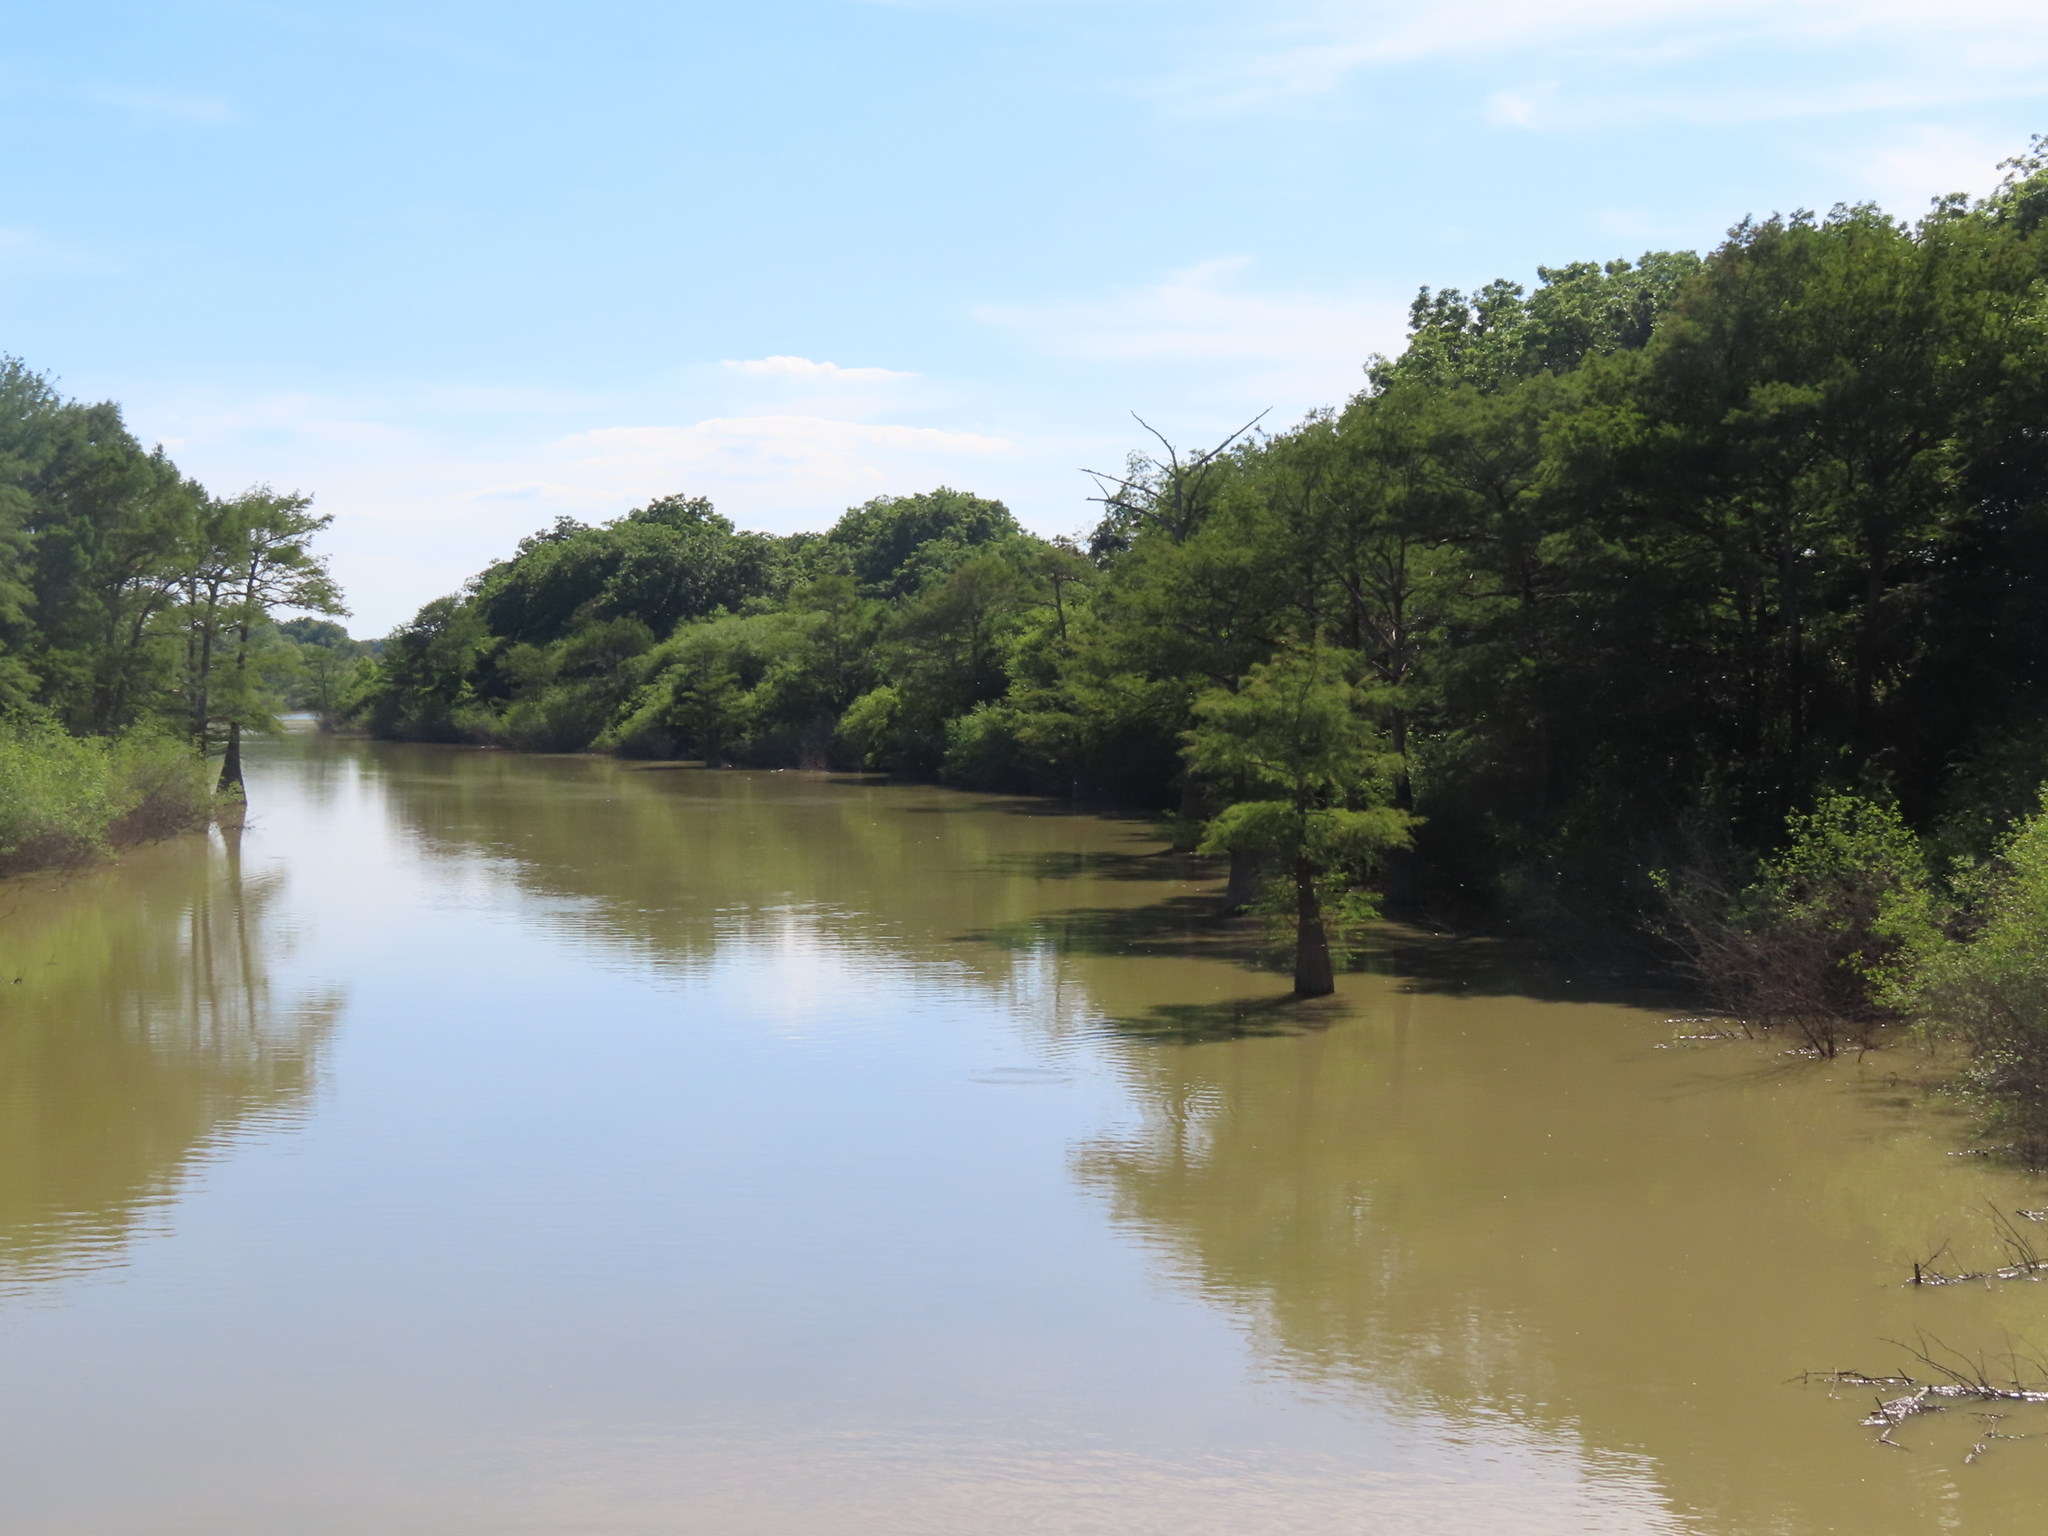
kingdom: Plantae
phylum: Tracheophyta
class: Pinopsida
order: Pinales
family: Cupressaceae
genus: Taxodium
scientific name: Taxodium distichum
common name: Bald cypress
